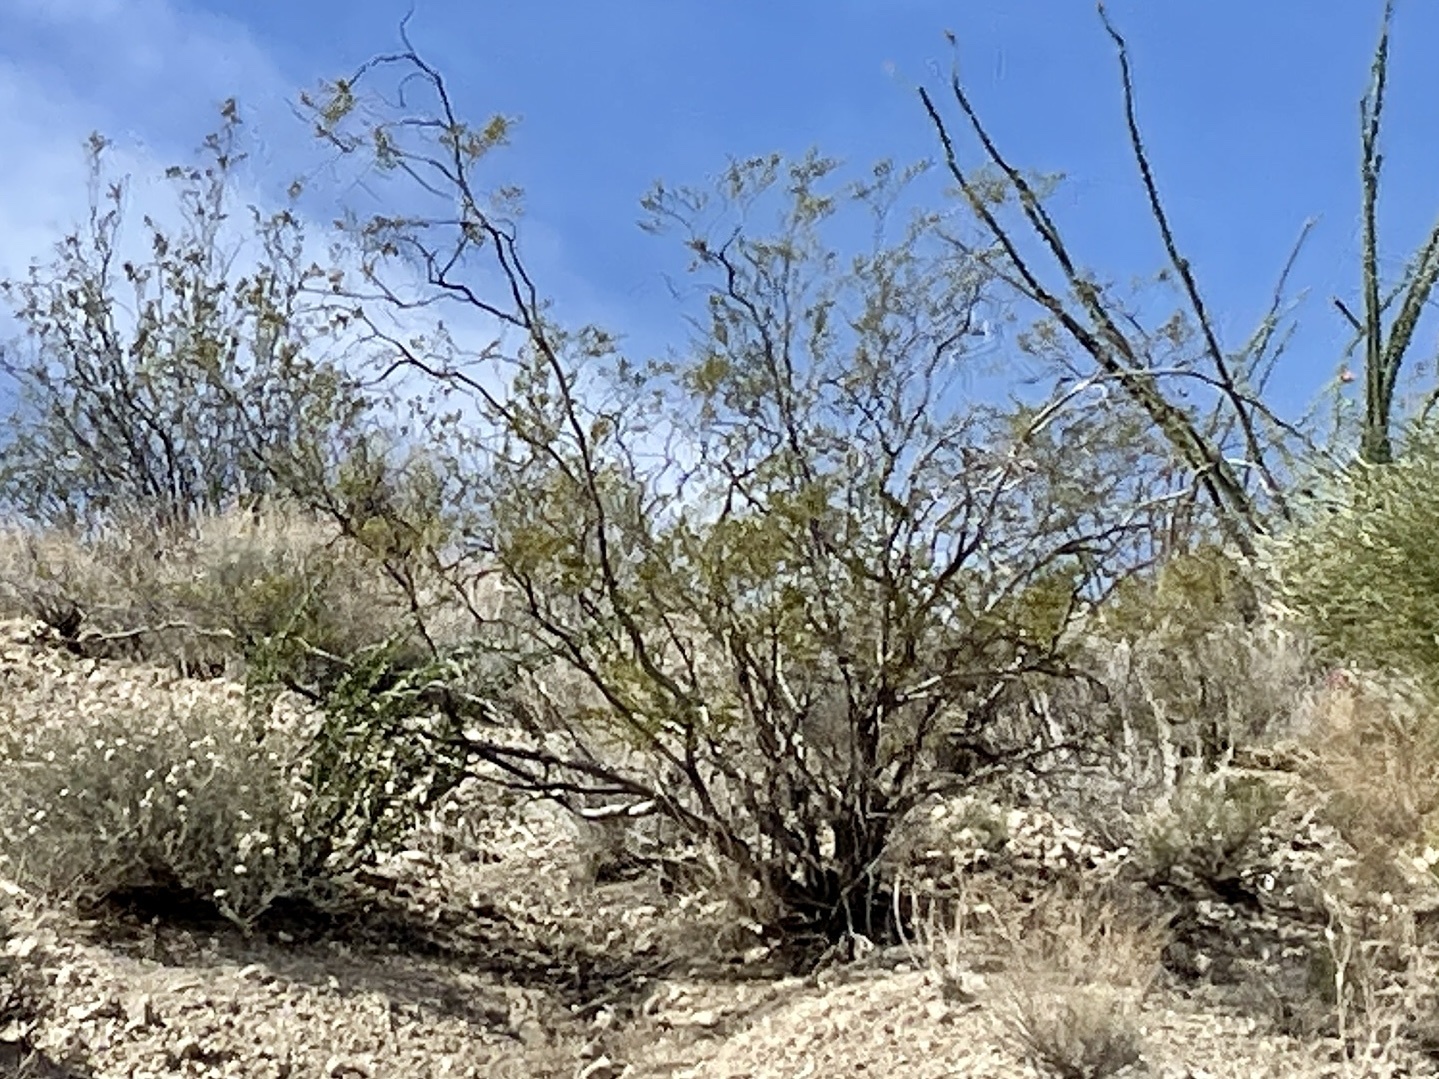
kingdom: Plantae
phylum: Tracheophyta
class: Magnoliopsida
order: Zygophyllales
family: Zygophyllaceae
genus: Larrea
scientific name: Larrea tridentata
